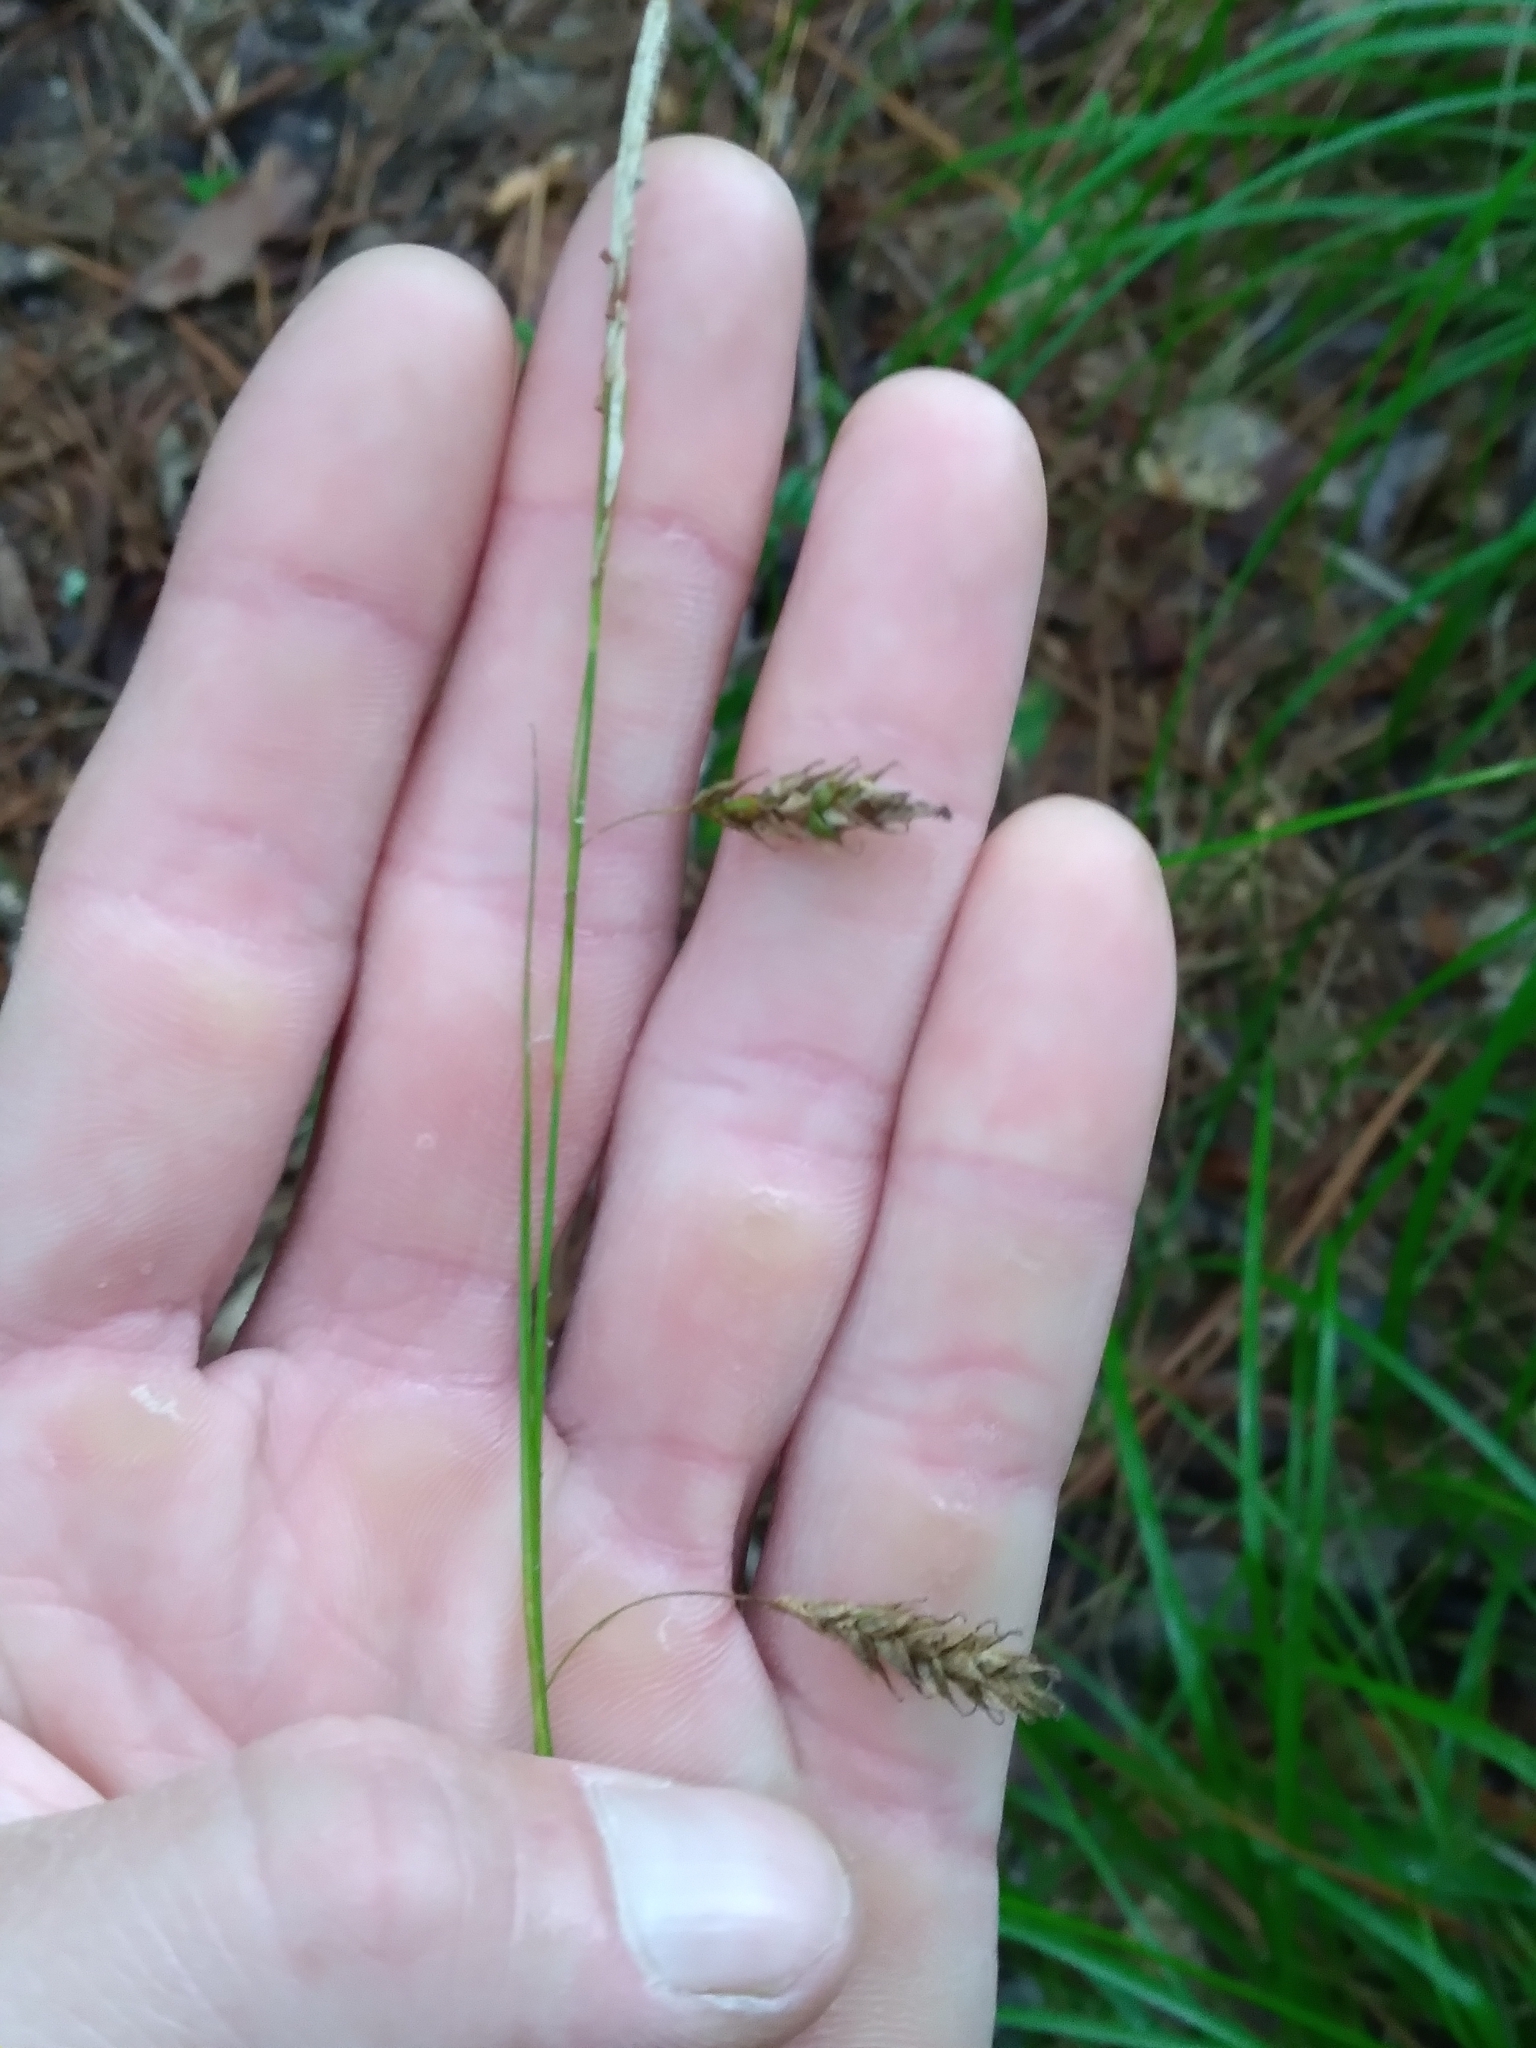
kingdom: Plantae
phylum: Tracheophyta
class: Liliopsida
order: Poales
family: Cyperaceae
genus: Carex
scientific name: Carex cherokeensis
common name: Cherokee sedge
